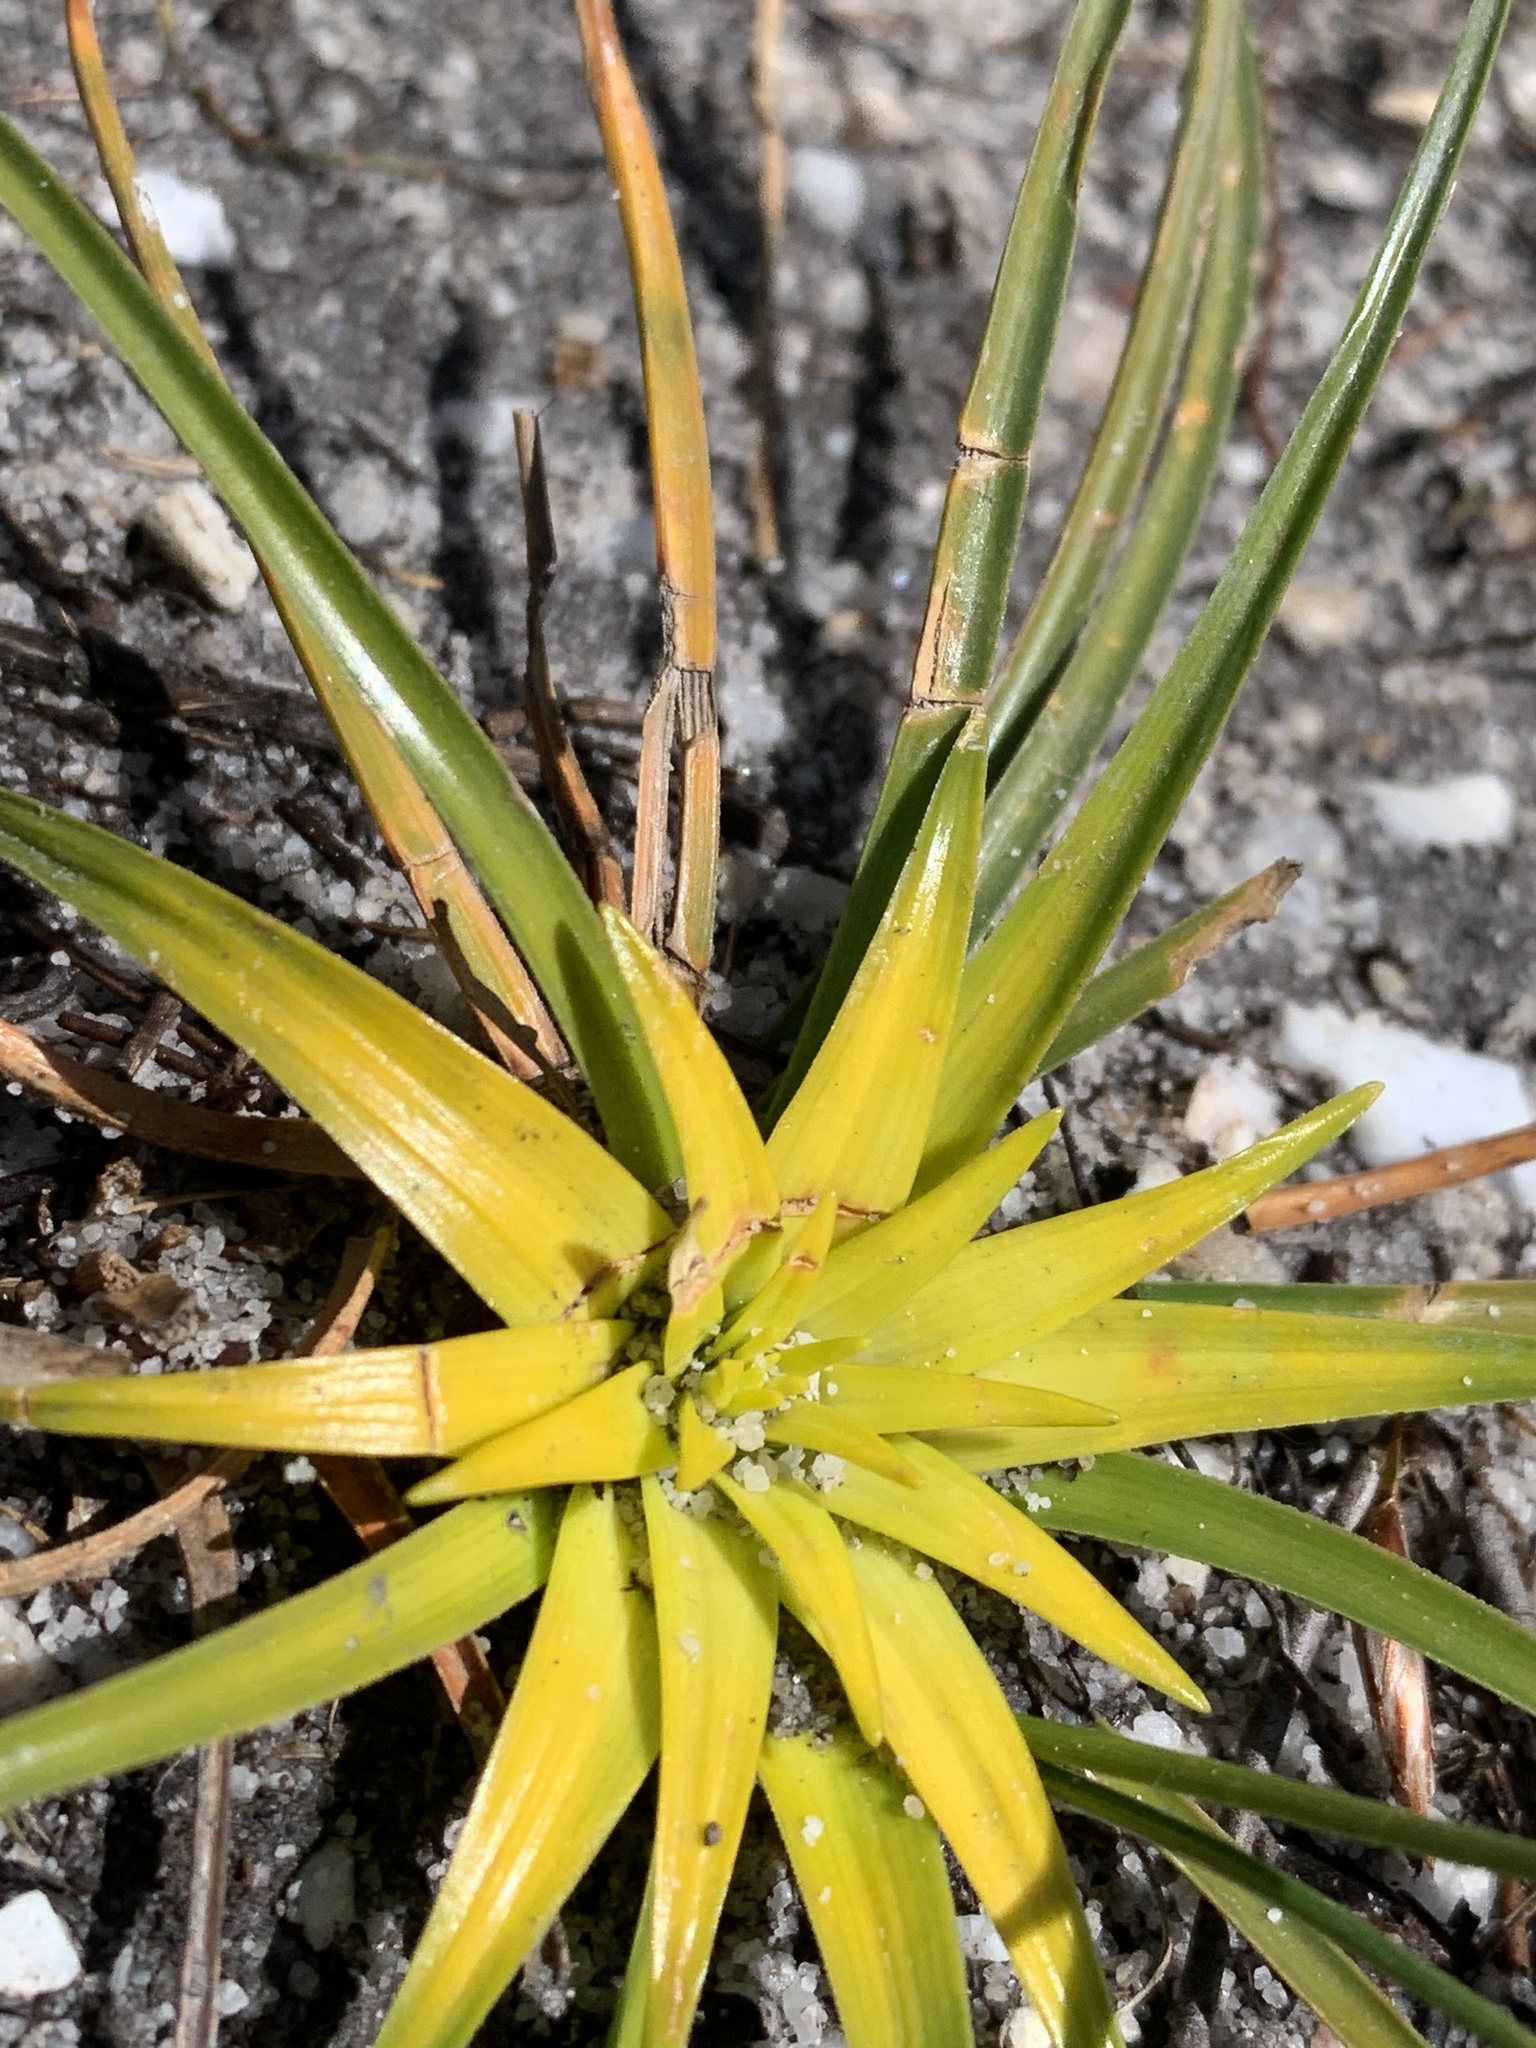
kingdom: Plantae
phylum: Tracheophyta
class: Liliopsida
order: Poales
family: Cyperaceae
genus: Ficinia
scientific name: Ficinia radiata
